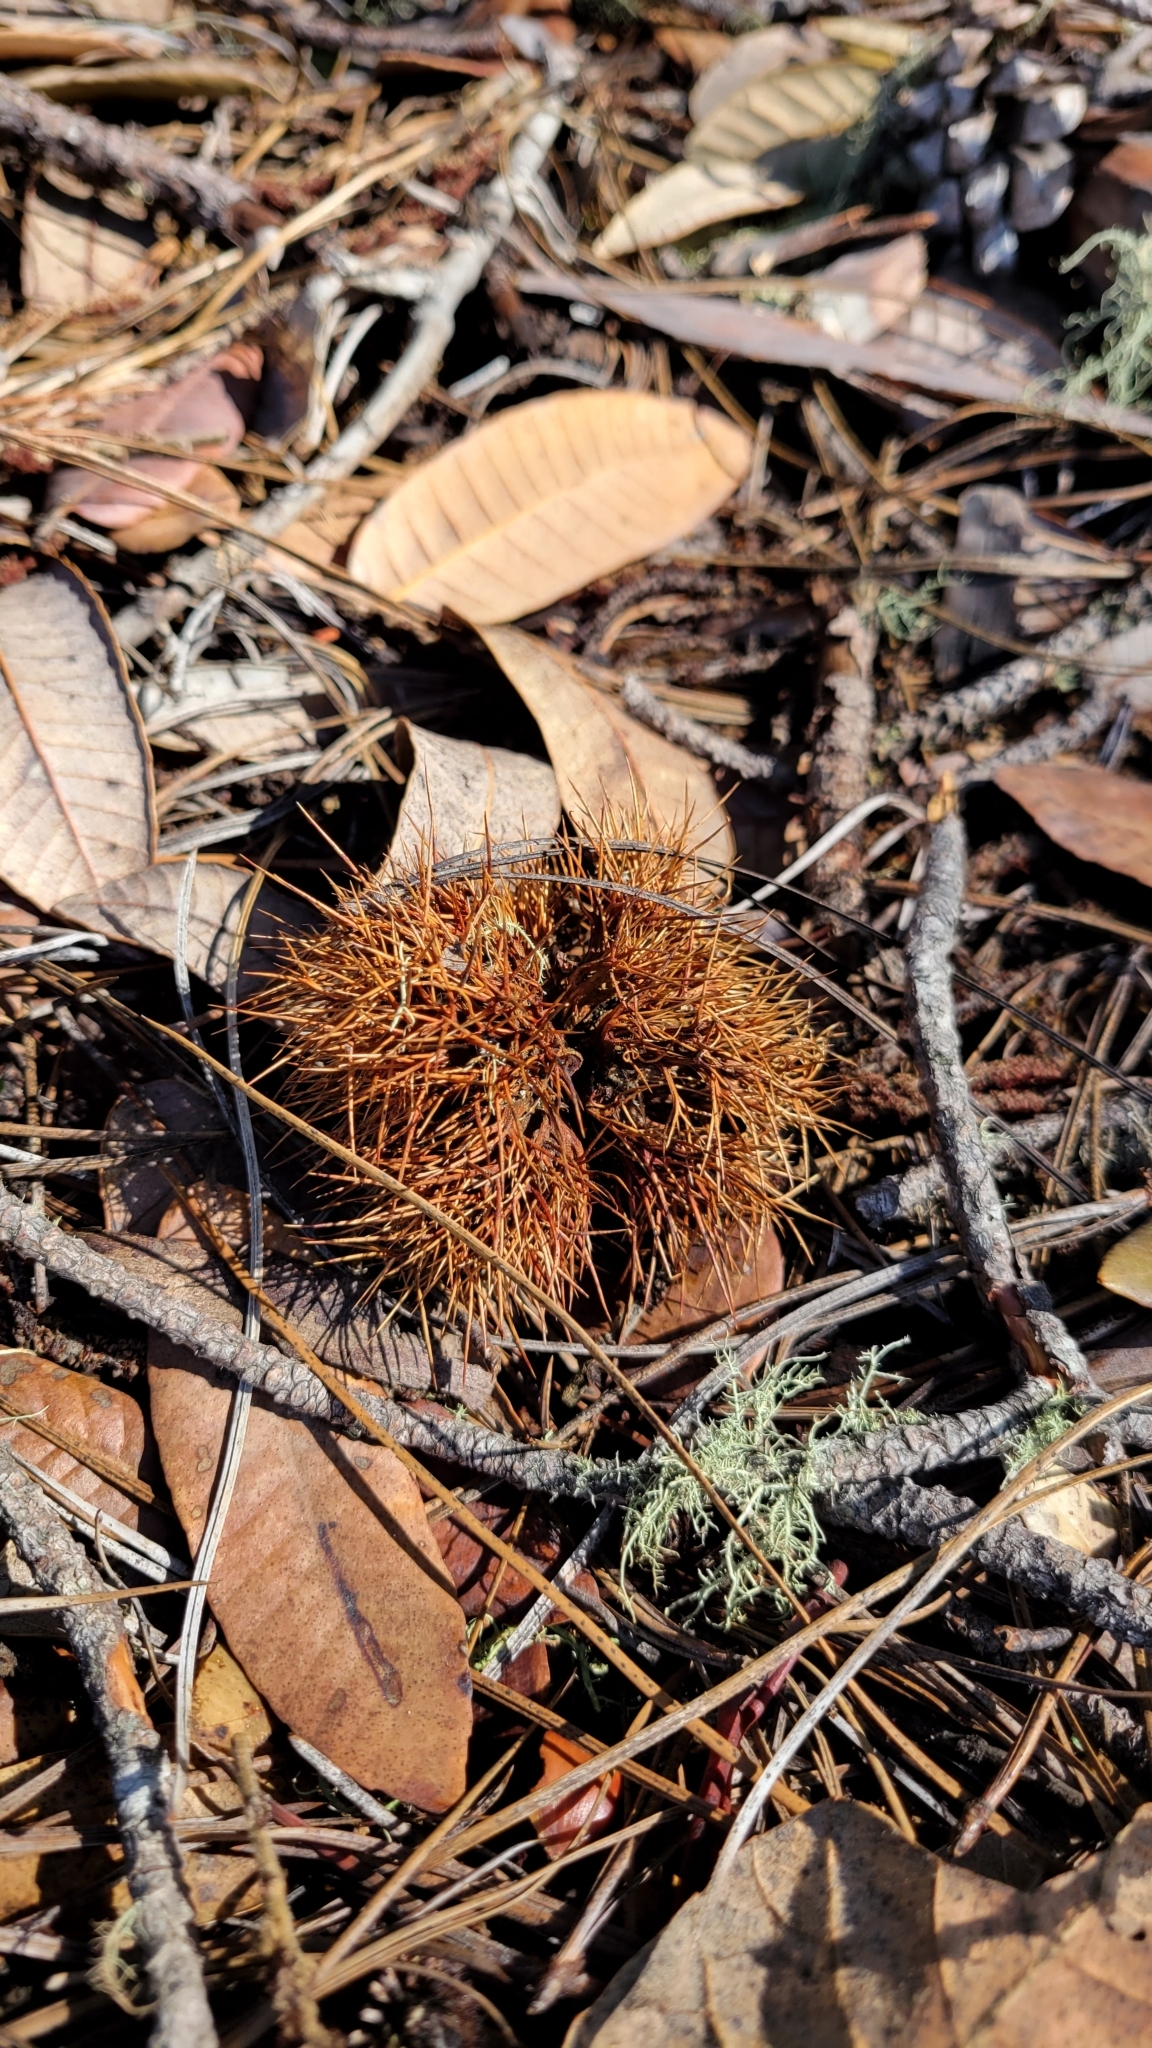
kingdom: Plantae
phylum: Tracheophyta
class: Magnoliopsida
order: Fagales
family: Fagaceae
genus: Chrysolepis
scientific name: Chrysolepis chrysophylla
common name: Giant chinquapin
